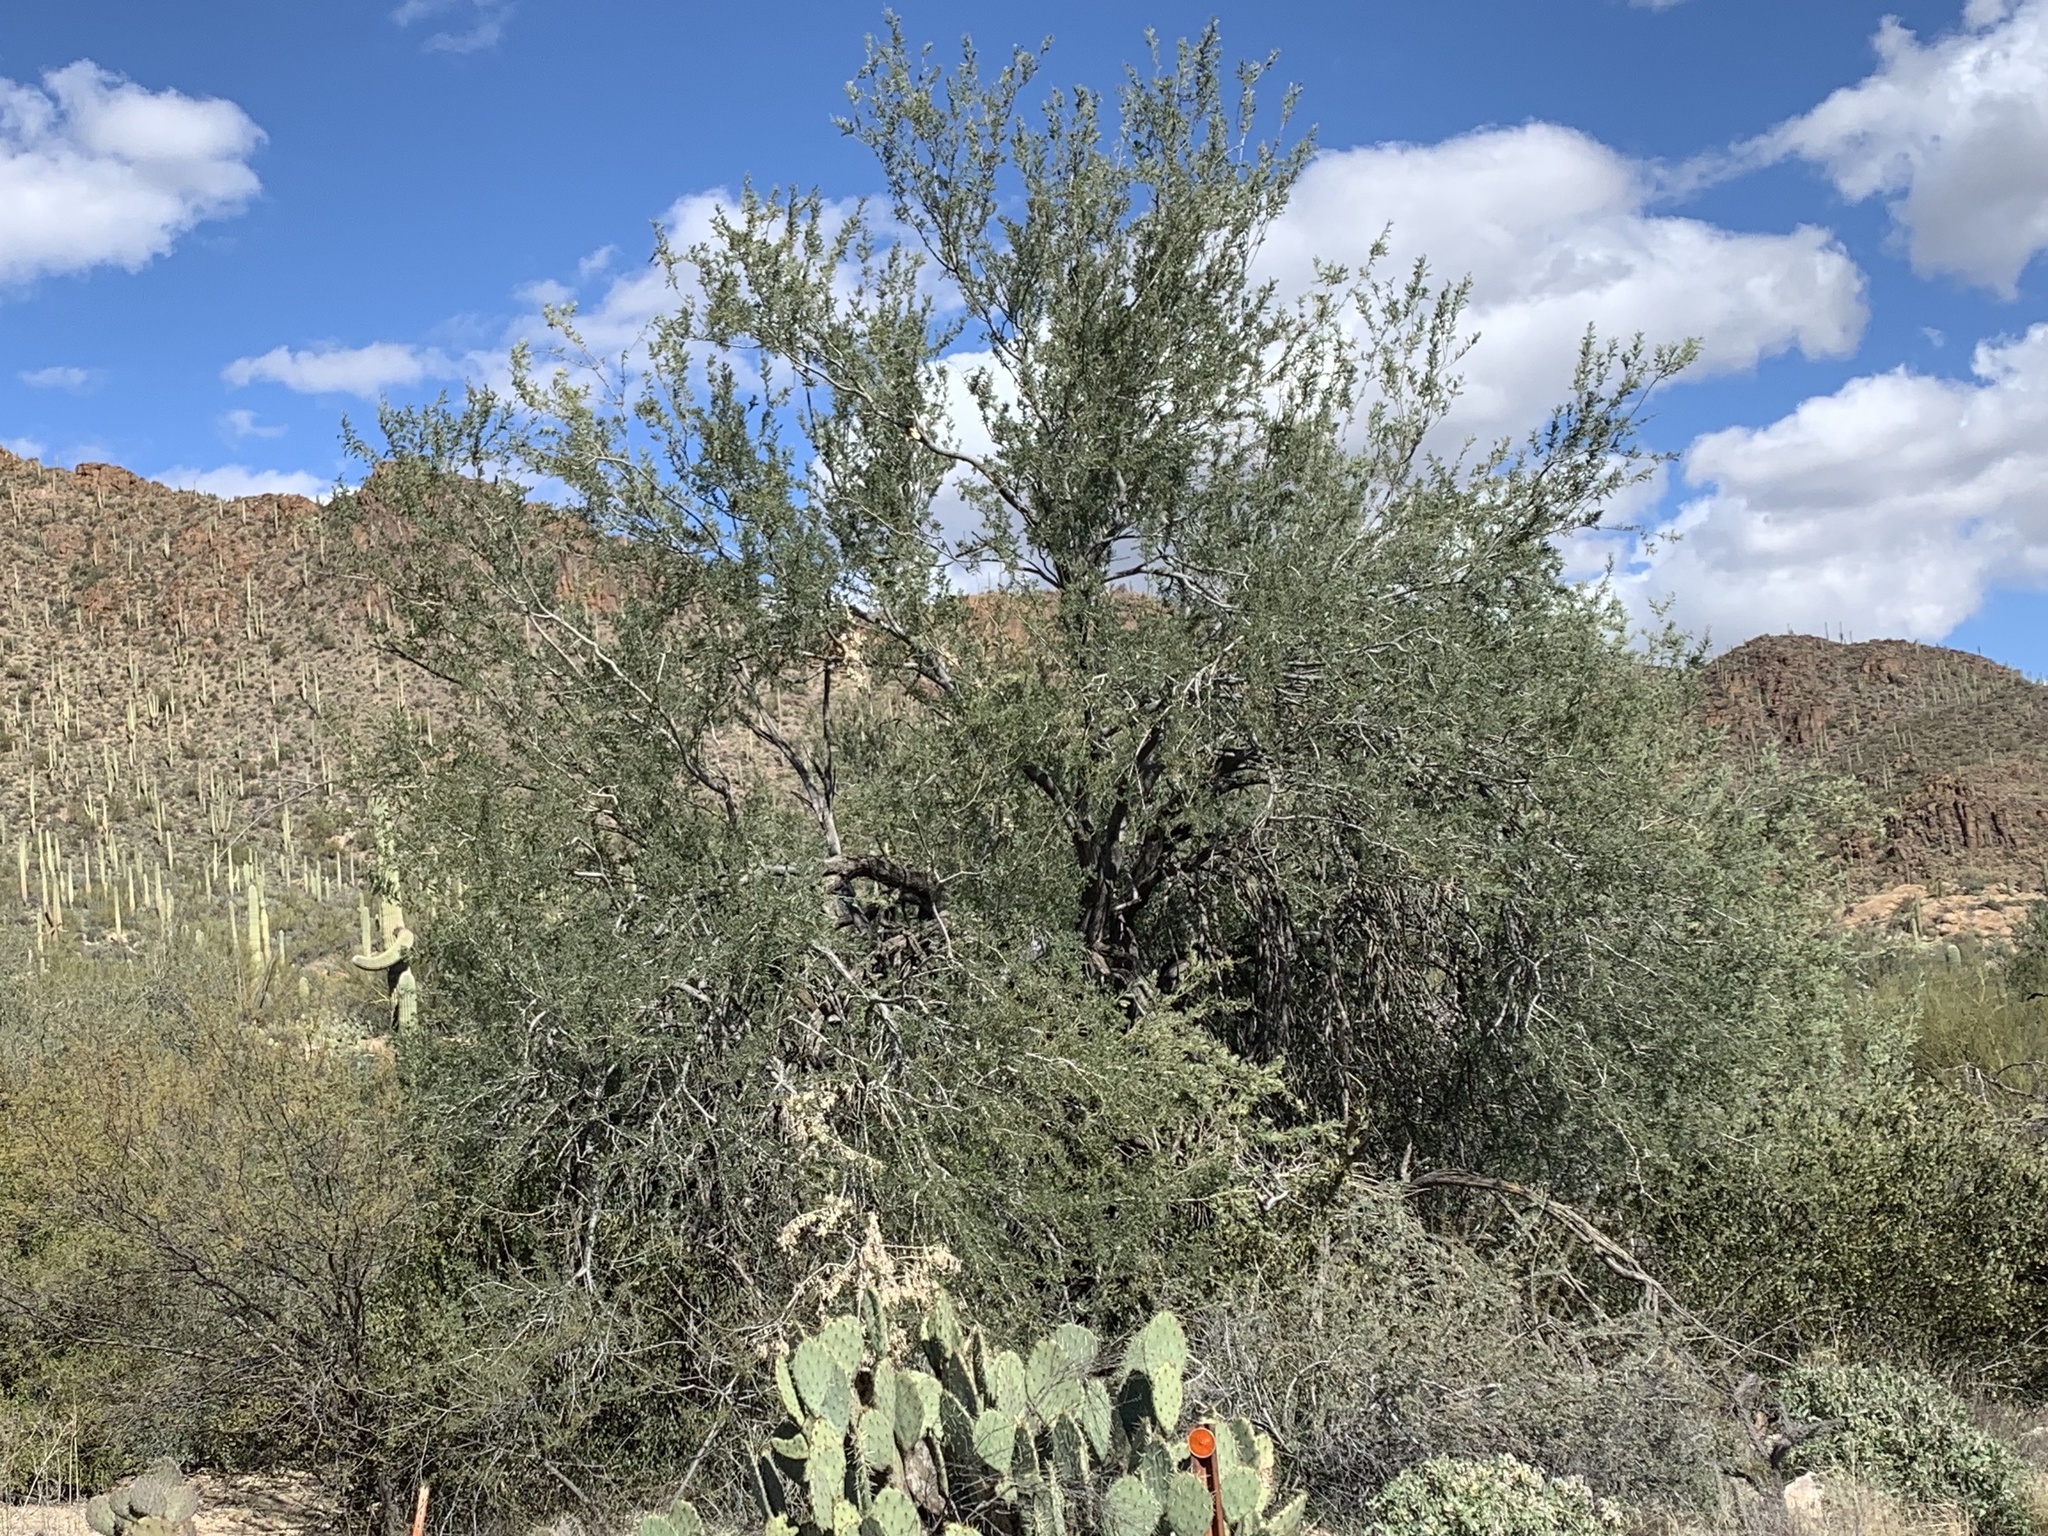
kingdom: Plantae
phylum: Tracheophyta
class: Magnoliopsida
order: Fabales
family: Fabaceae
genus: Olneya
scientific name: Olneya tesota
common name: Desert ironwood
